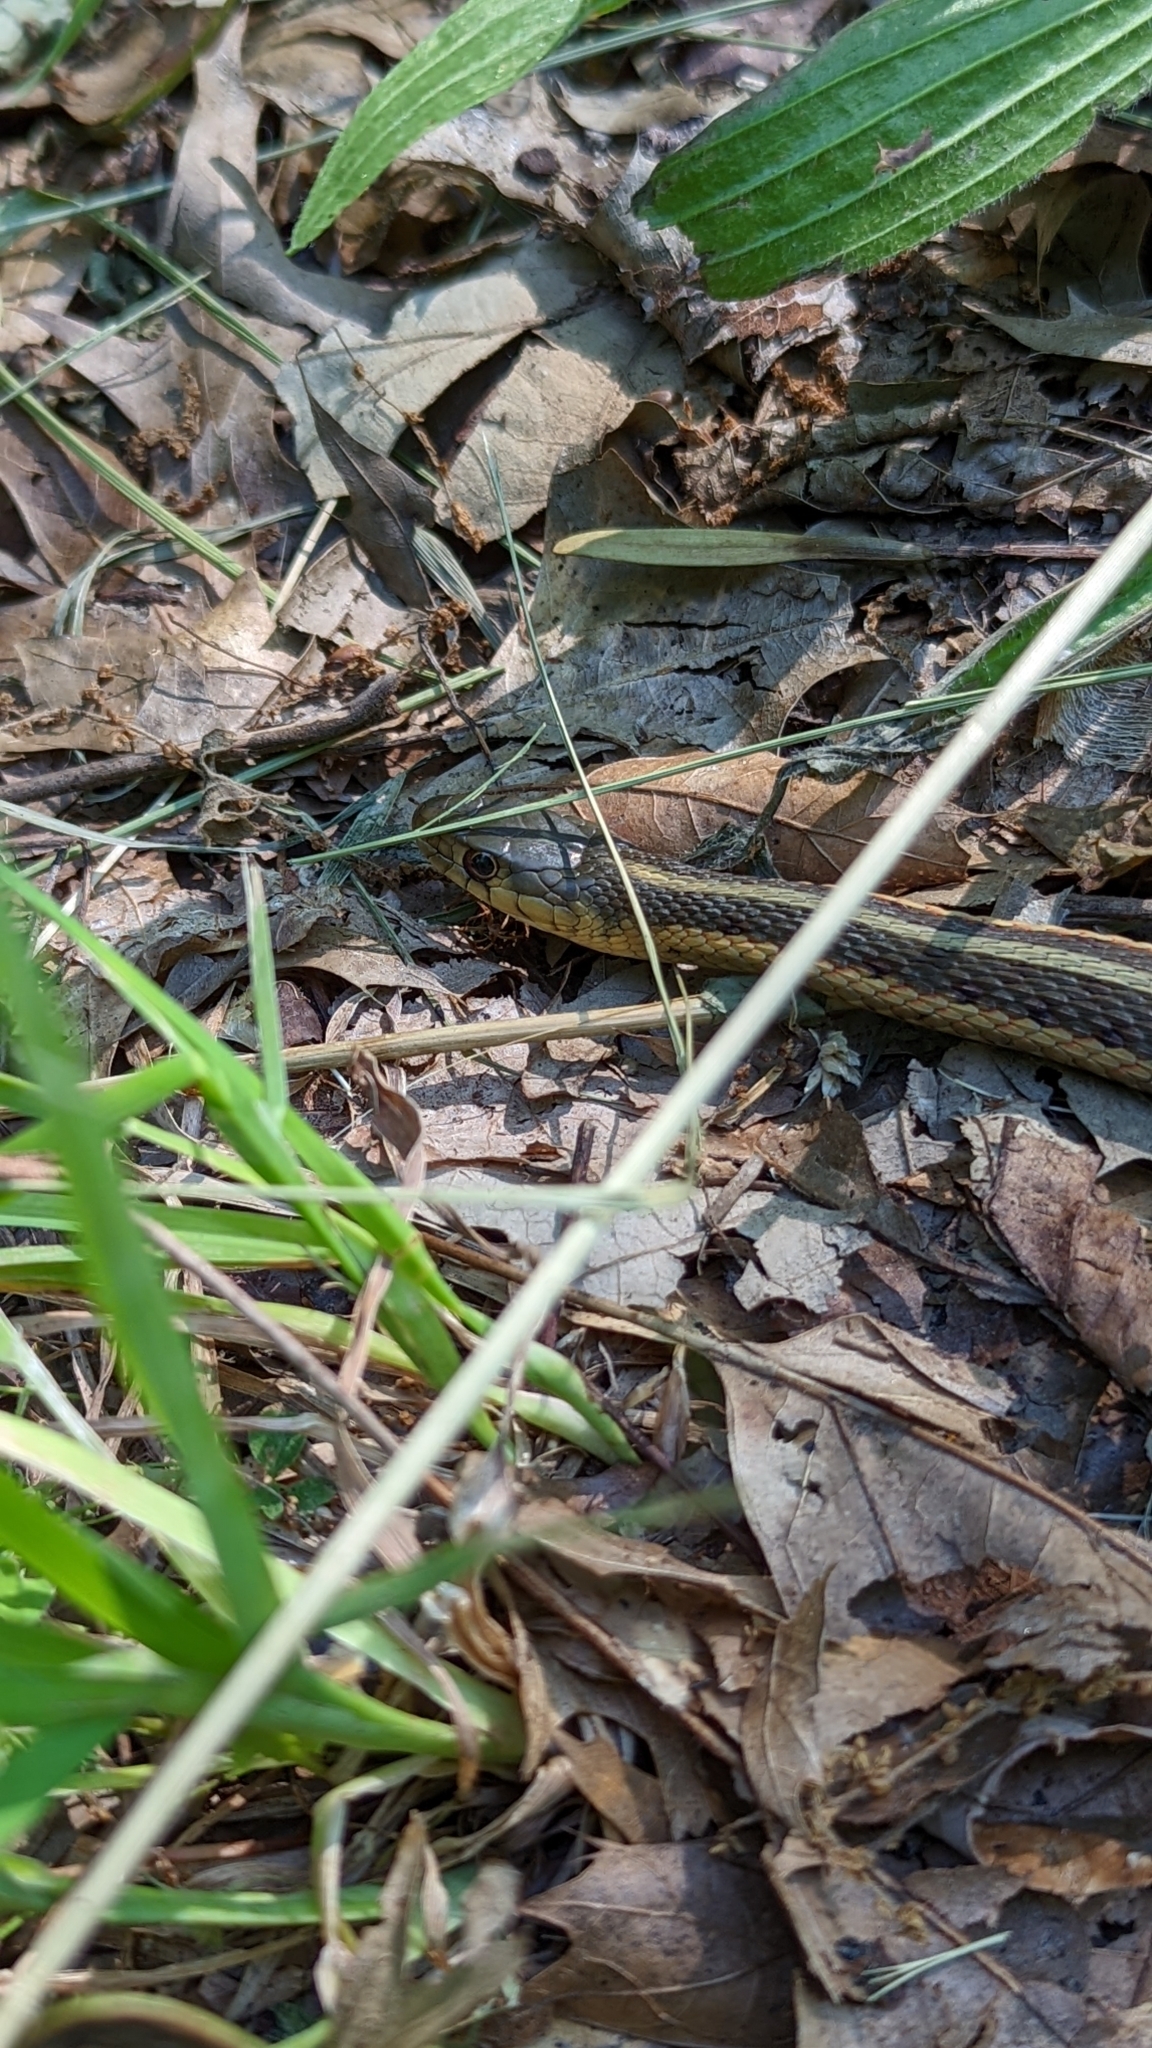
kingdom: Animalia
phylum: Chordata
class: Squamata
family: Colubridae
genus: Thamnophis
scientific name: Thamnophis sirtalis
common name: Common garter snake
